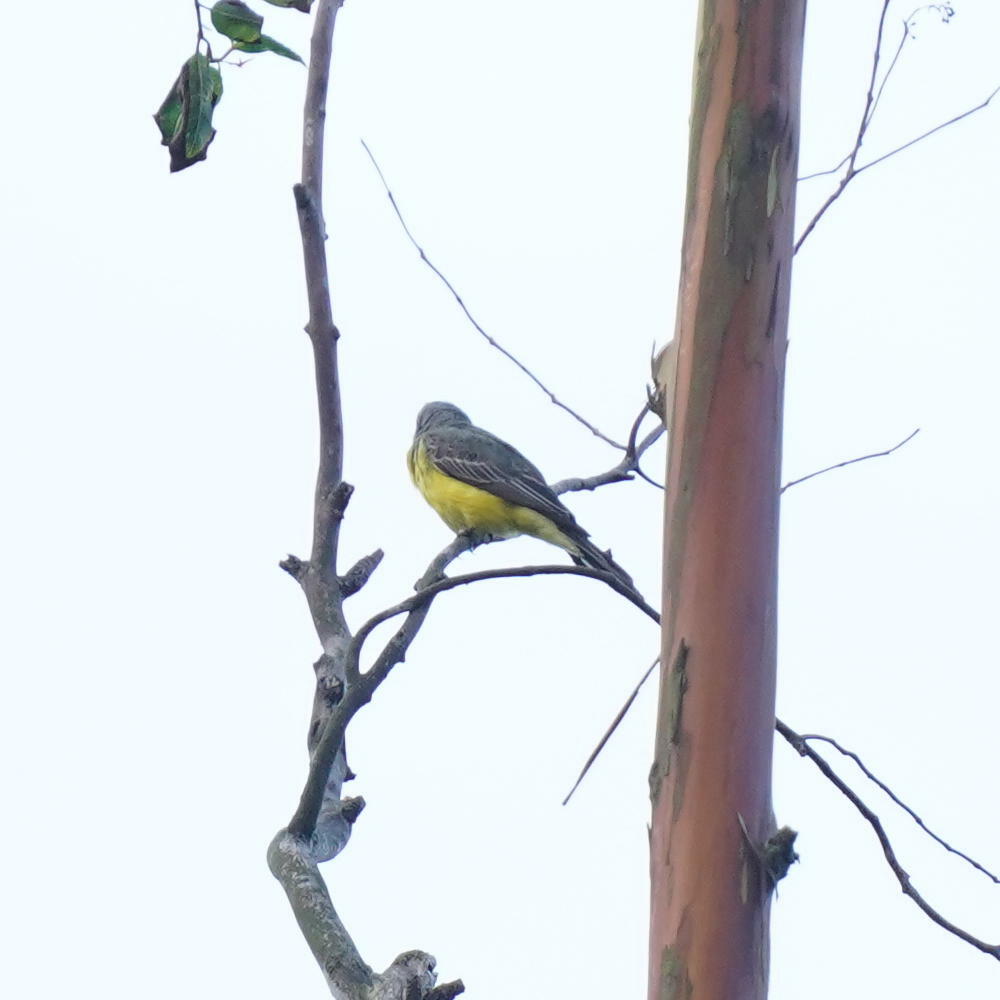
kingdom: Animalia
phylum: Chordata
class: Aves
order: Passeriformes
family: Tyrannidae
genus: Tyrannus
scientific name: Tyrannus melancholicus
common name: Tropical kingbird
